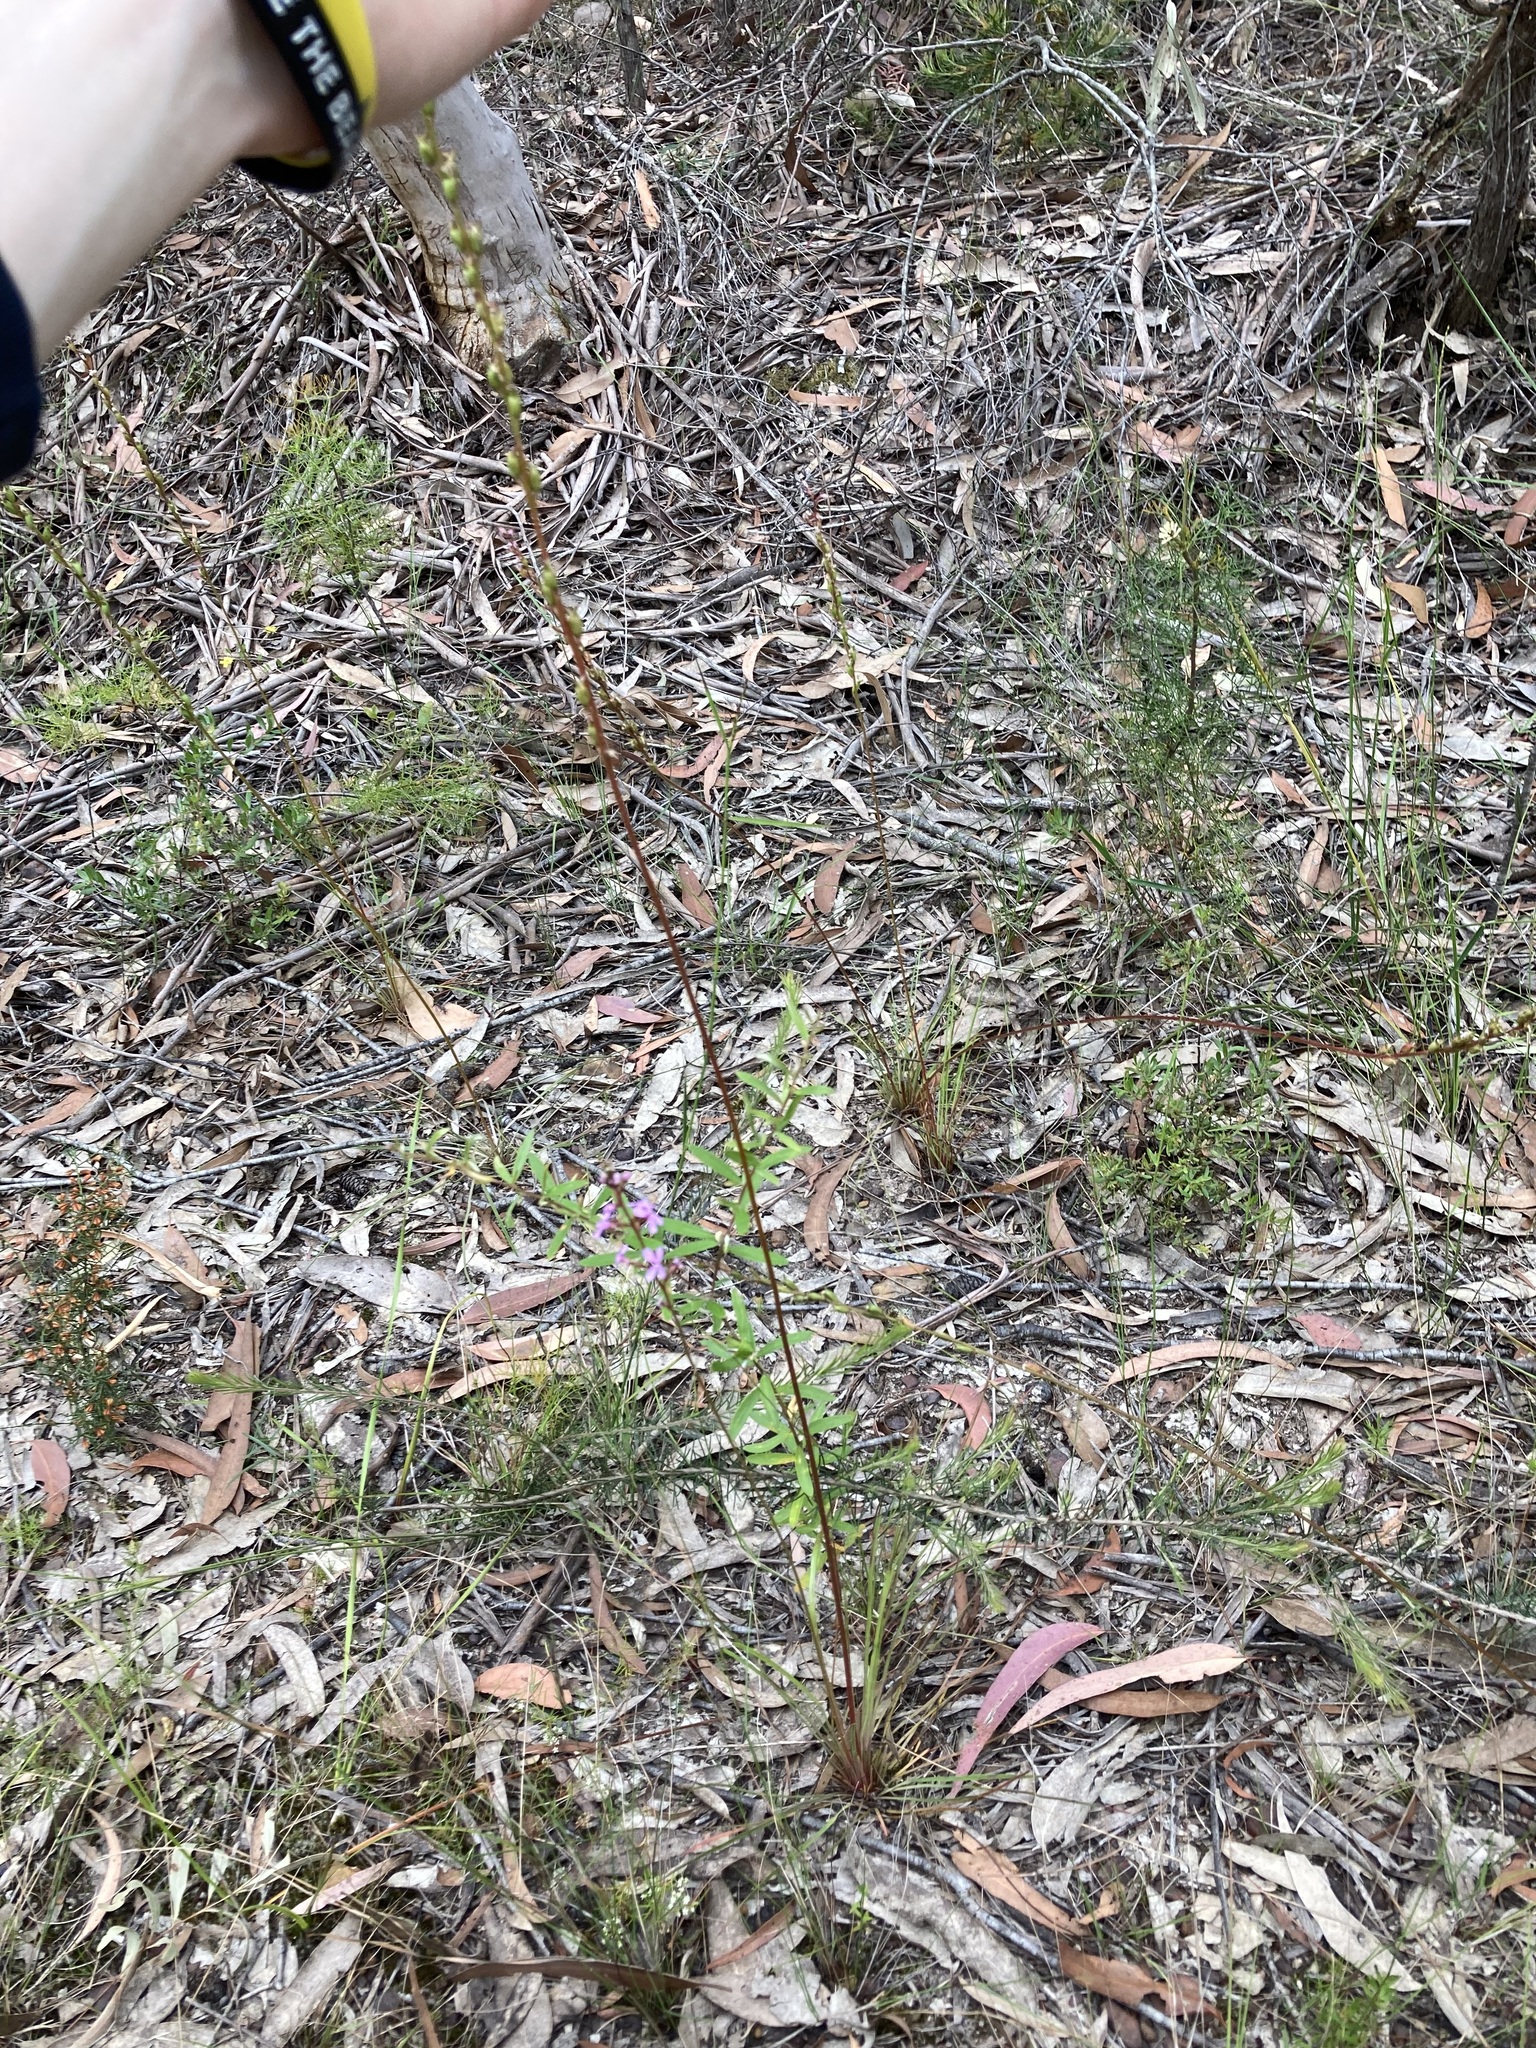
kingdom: Plantae
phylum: Tracheophyta
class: Magnoliopsida
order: Asterales
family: Stylidiaceae
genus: Stylidium
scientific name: Stylidium graminifolium
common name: Grass triggerplant
